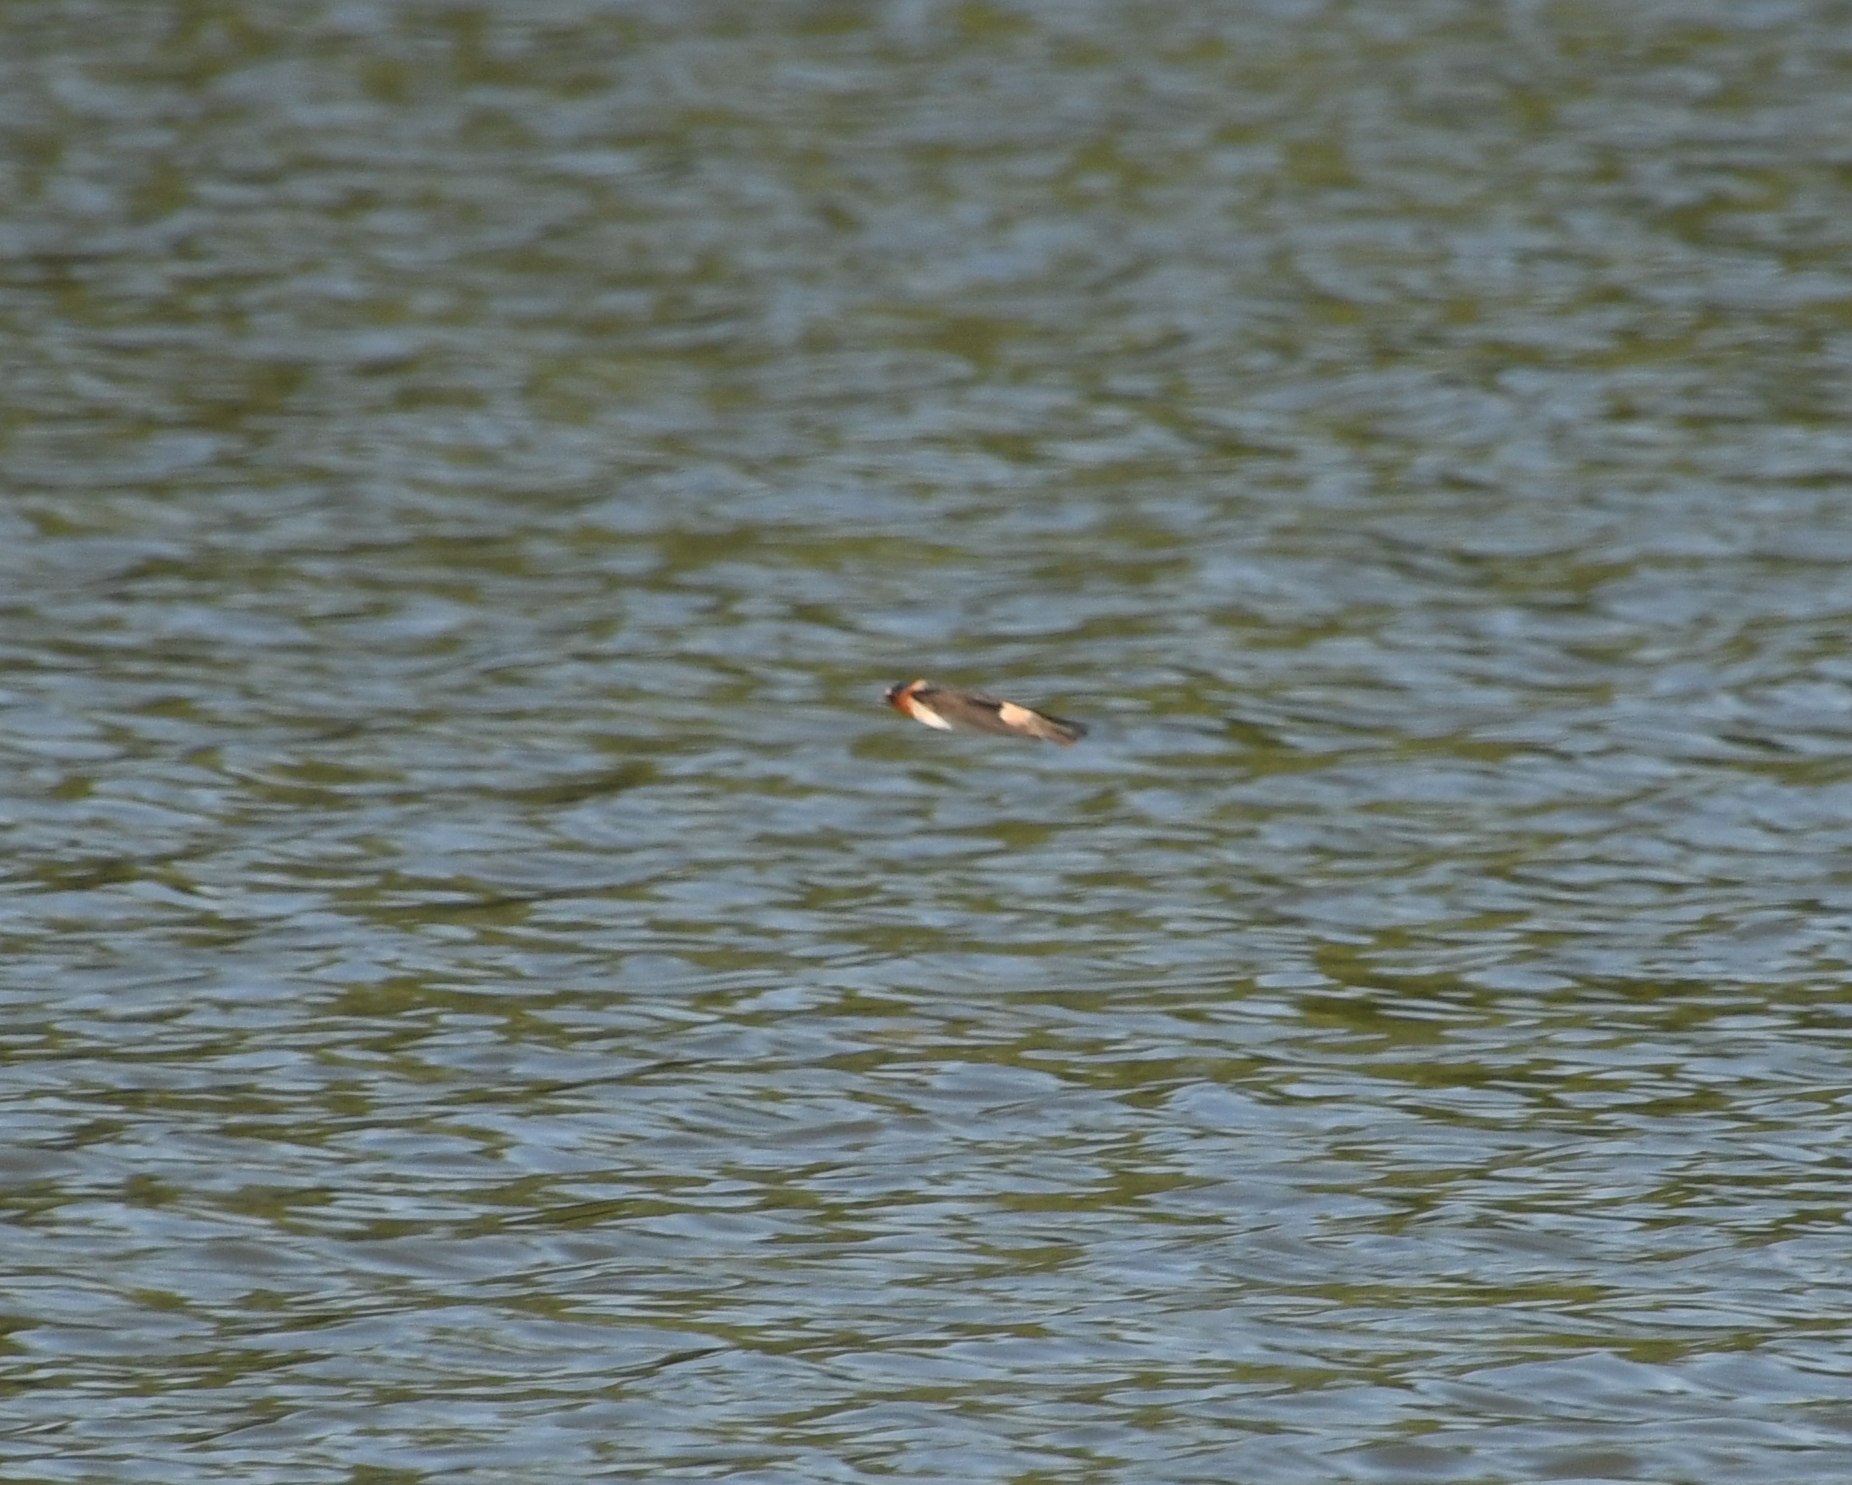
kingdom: Animalia
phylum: Chordata
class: Aves
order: Passeriformes
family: Hirundinidae
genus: Petrochelidon
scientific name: Petrochelidon pyrrhonota
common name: American cliff swallow
